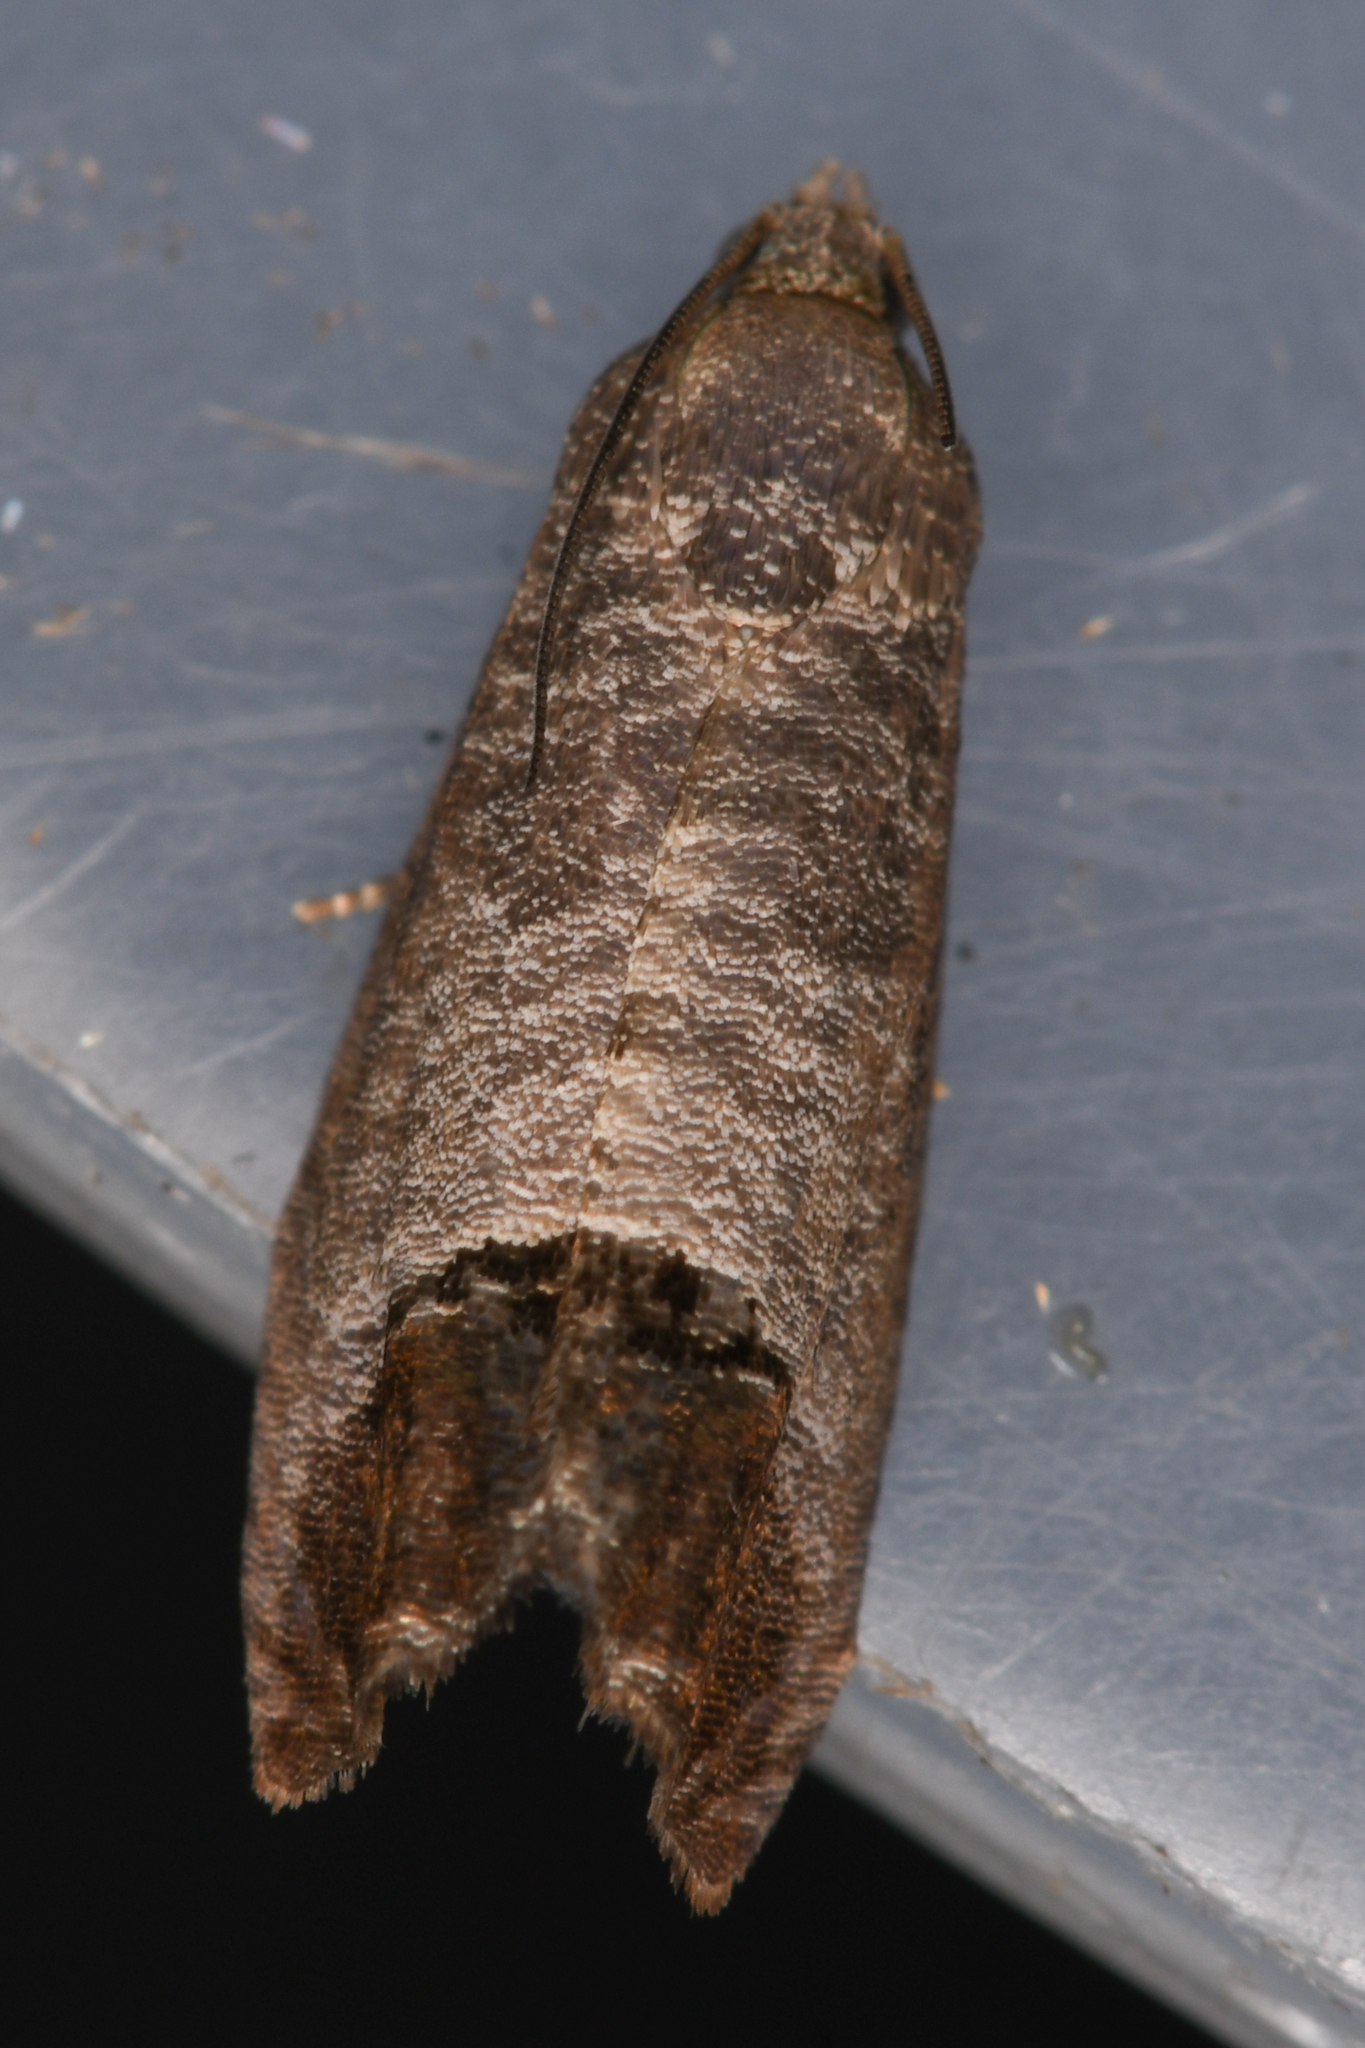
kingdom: Animalia
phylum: Arthropoda
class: Insecta
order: Lepidoptera
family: Tortricidae
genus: Cydia
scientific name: Cydia pomonella
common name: Codling moth
